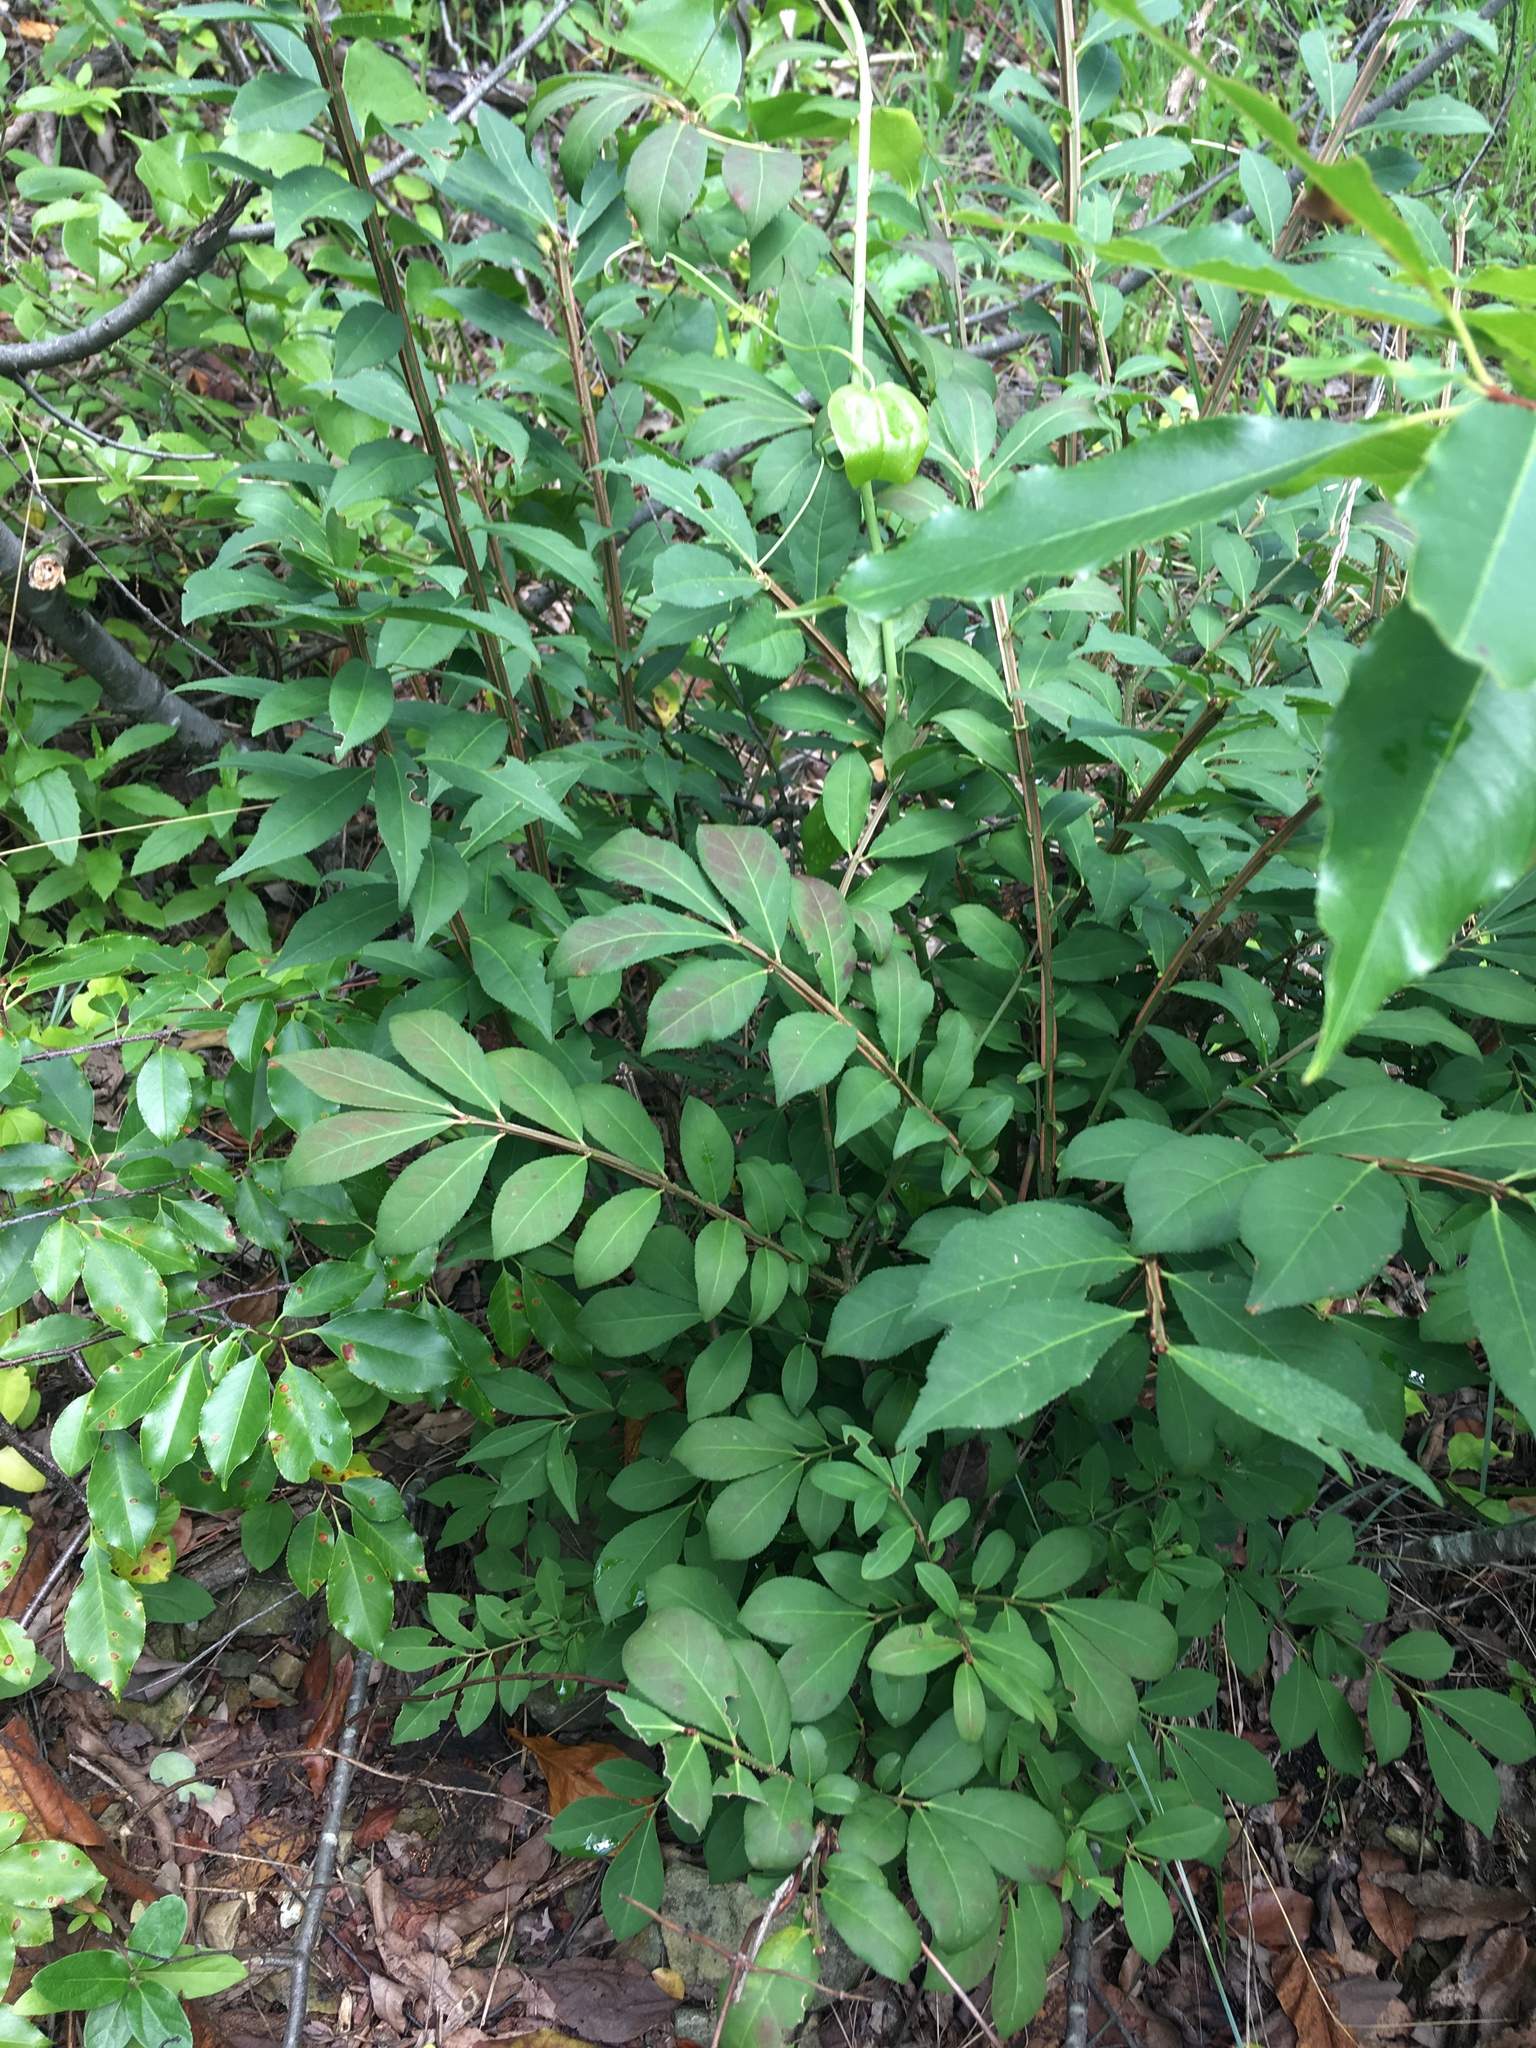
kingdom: Plantae
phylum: Tracheophyta
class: Magnoliopsida
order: Celastrales
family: Celastraceae
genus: Euonymus
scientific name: Euonymus alatus
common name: Winged euonymus
